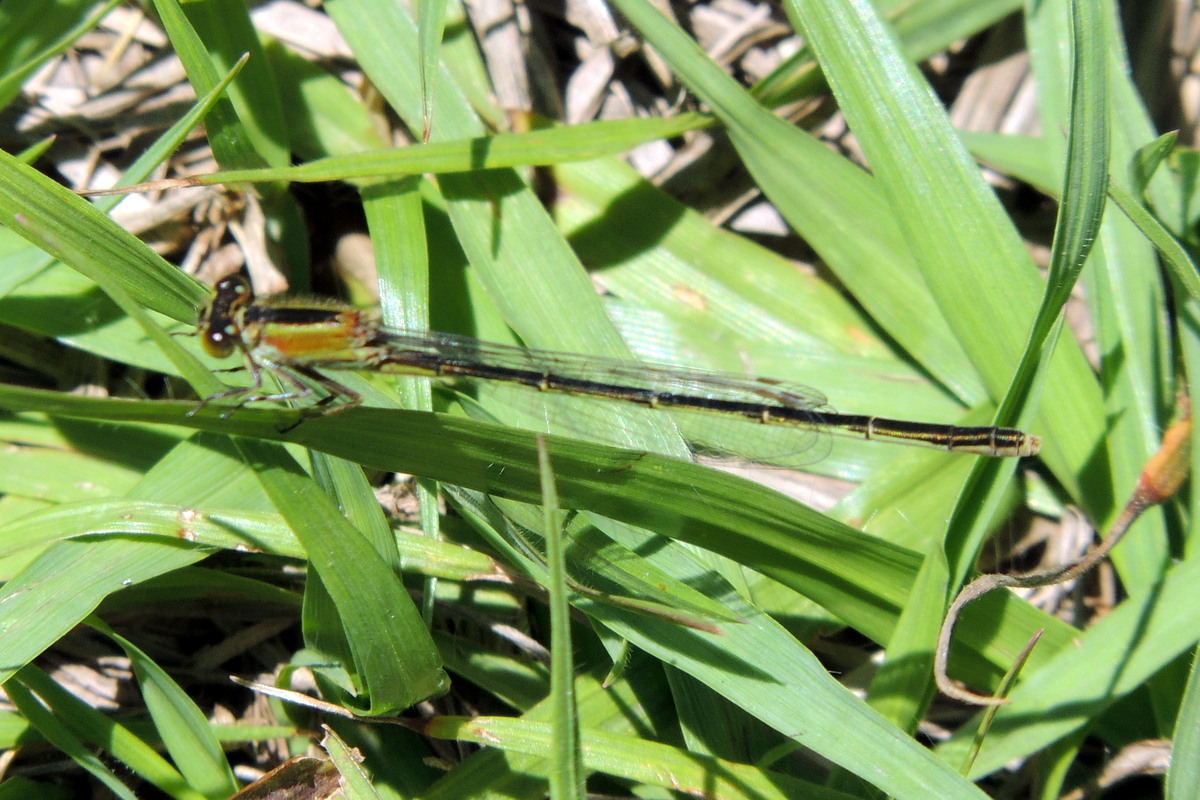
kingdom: Animalia
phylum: Arthropoda
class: Insecta
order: Odonata
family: Coenagrionidae
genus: Ischnura
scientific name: Ischnura ramburii
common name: Rambur's forktail
